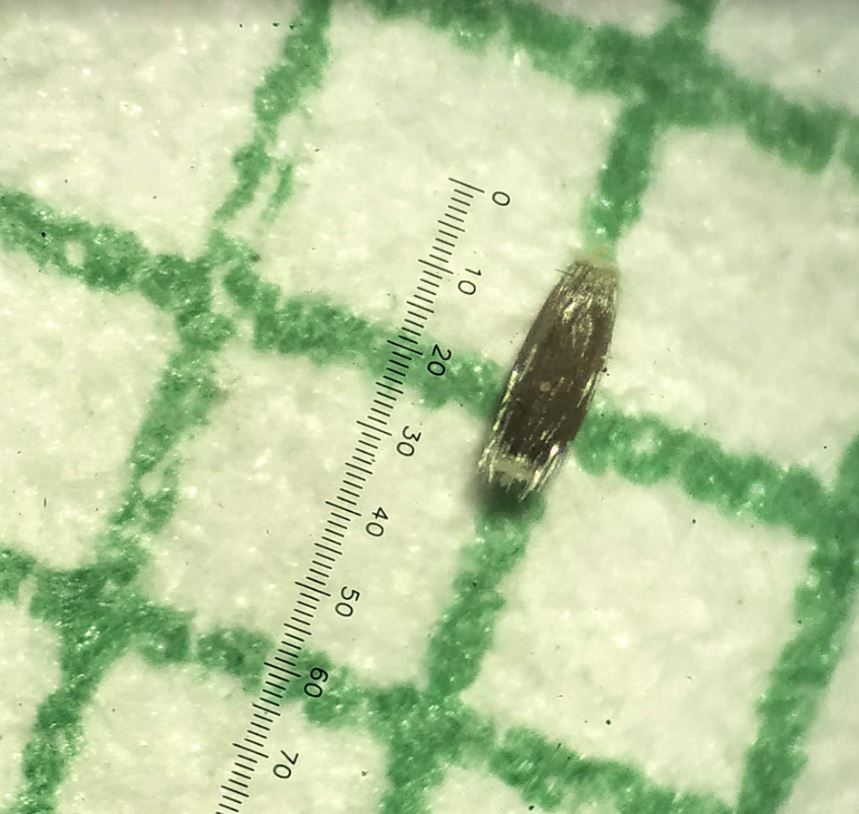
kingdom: Plantae
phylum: Tracheophyta
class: Magnoliopsida
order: Asterales
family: Asteraceae
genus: Blumea
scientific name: Blumea oxyodonta
